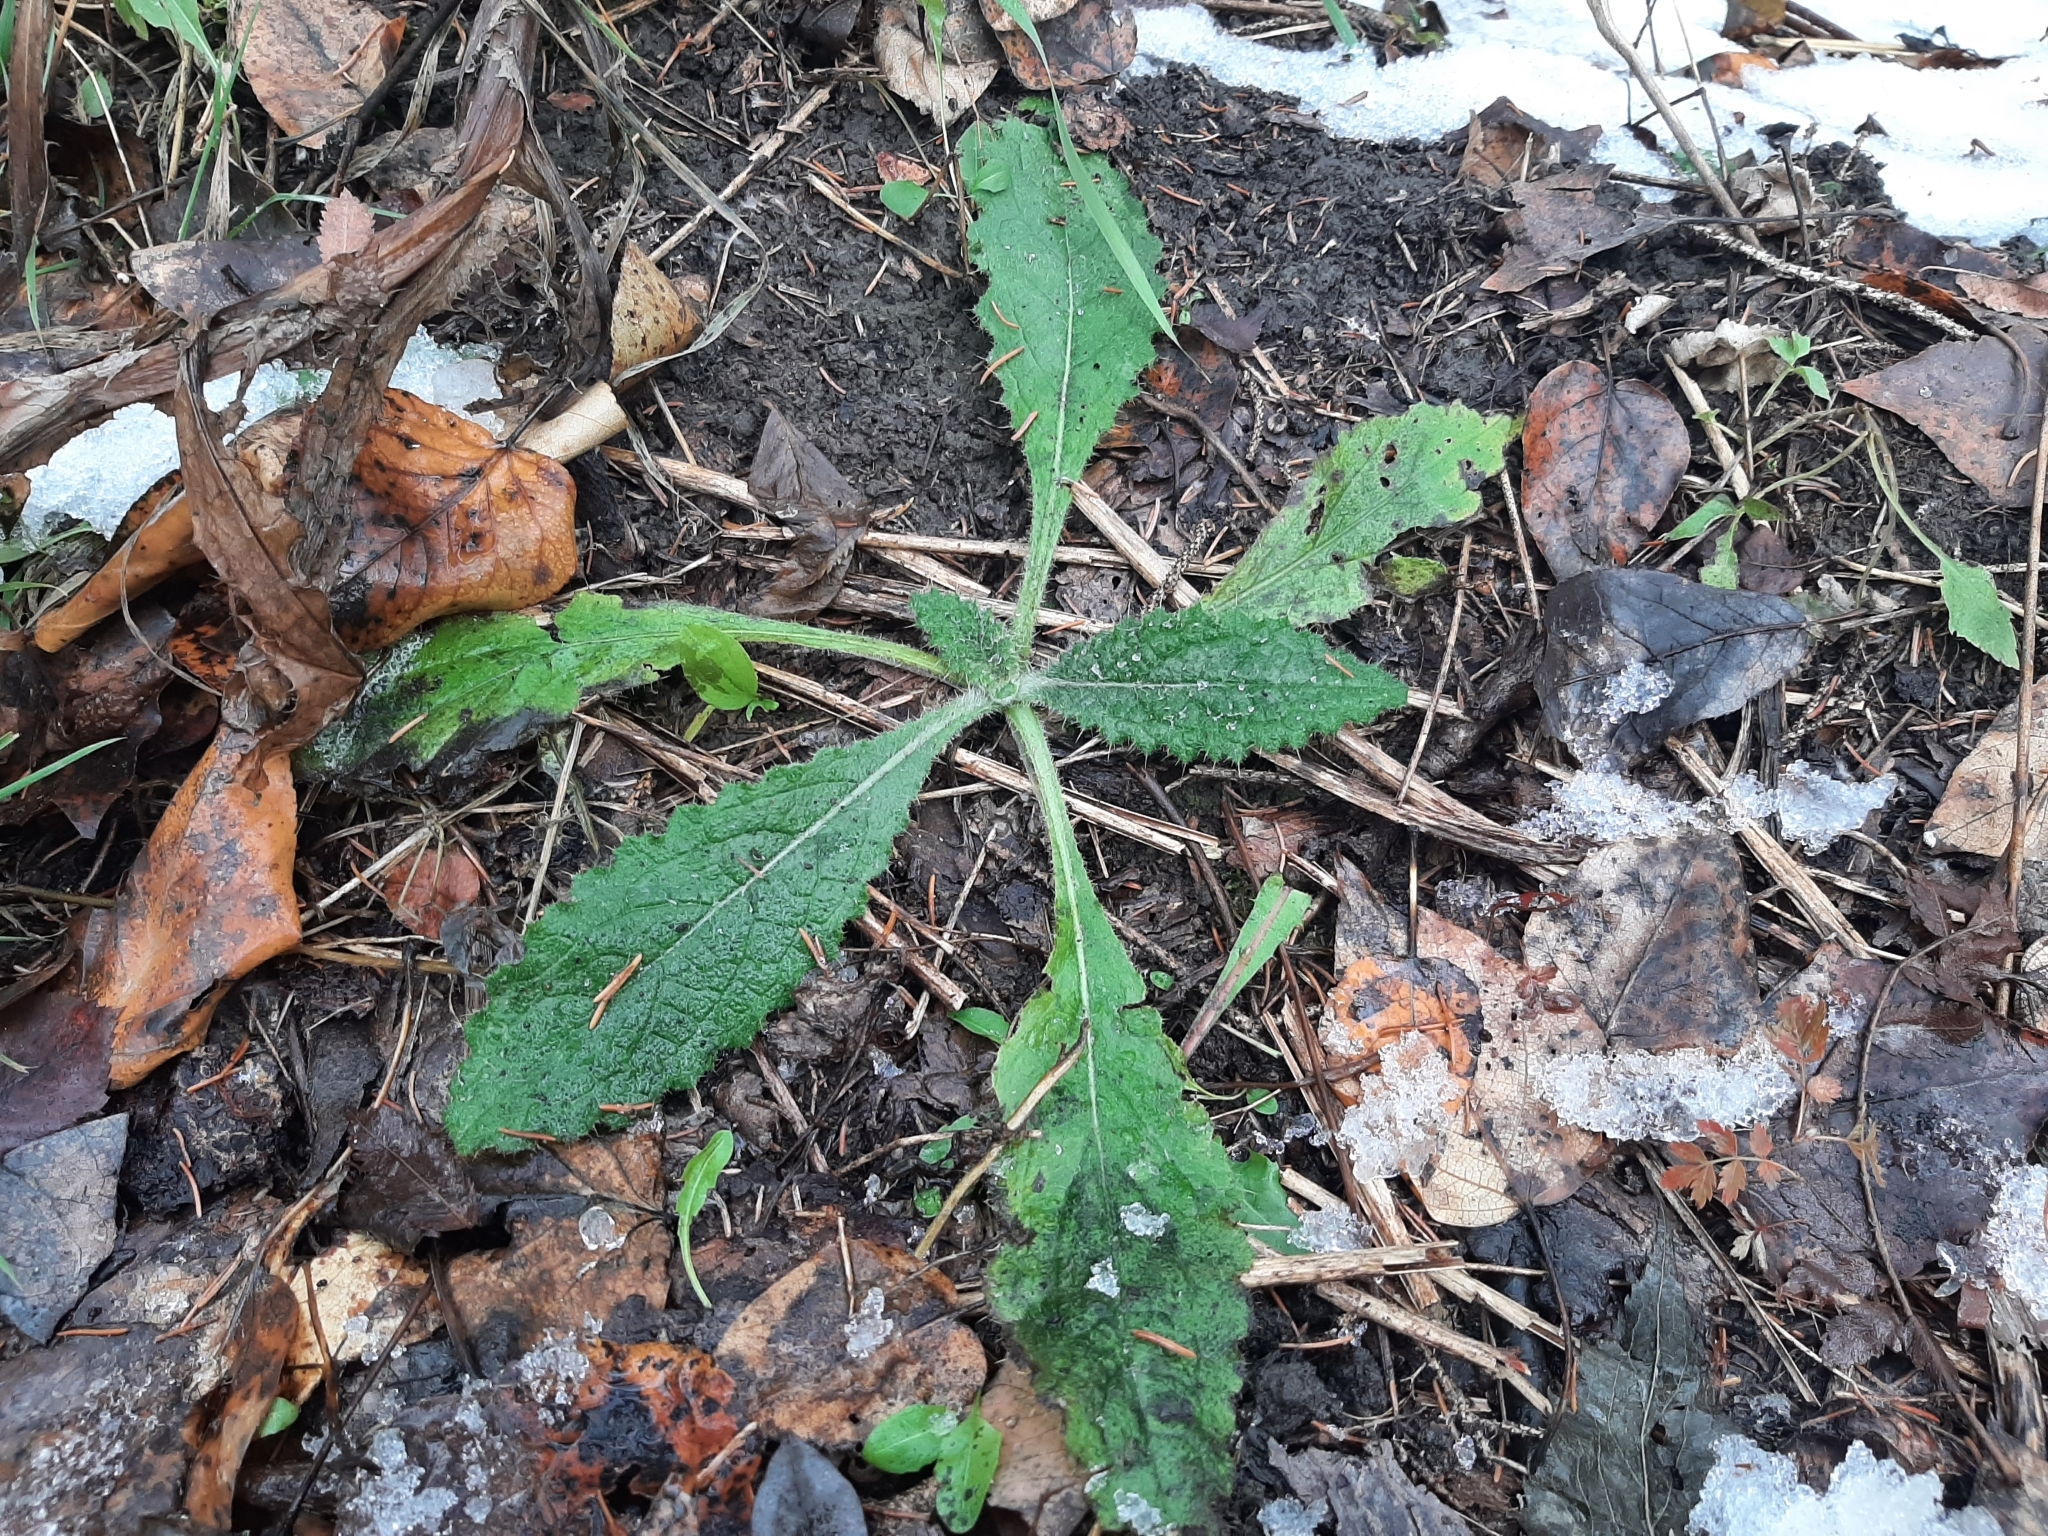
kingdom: Plantae
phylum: Tracheophyta
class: Magnoliopsida
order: Asterales
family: Asteraceae
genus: Cirsium
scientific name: Cirsium vulgare
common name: Bull thistle
